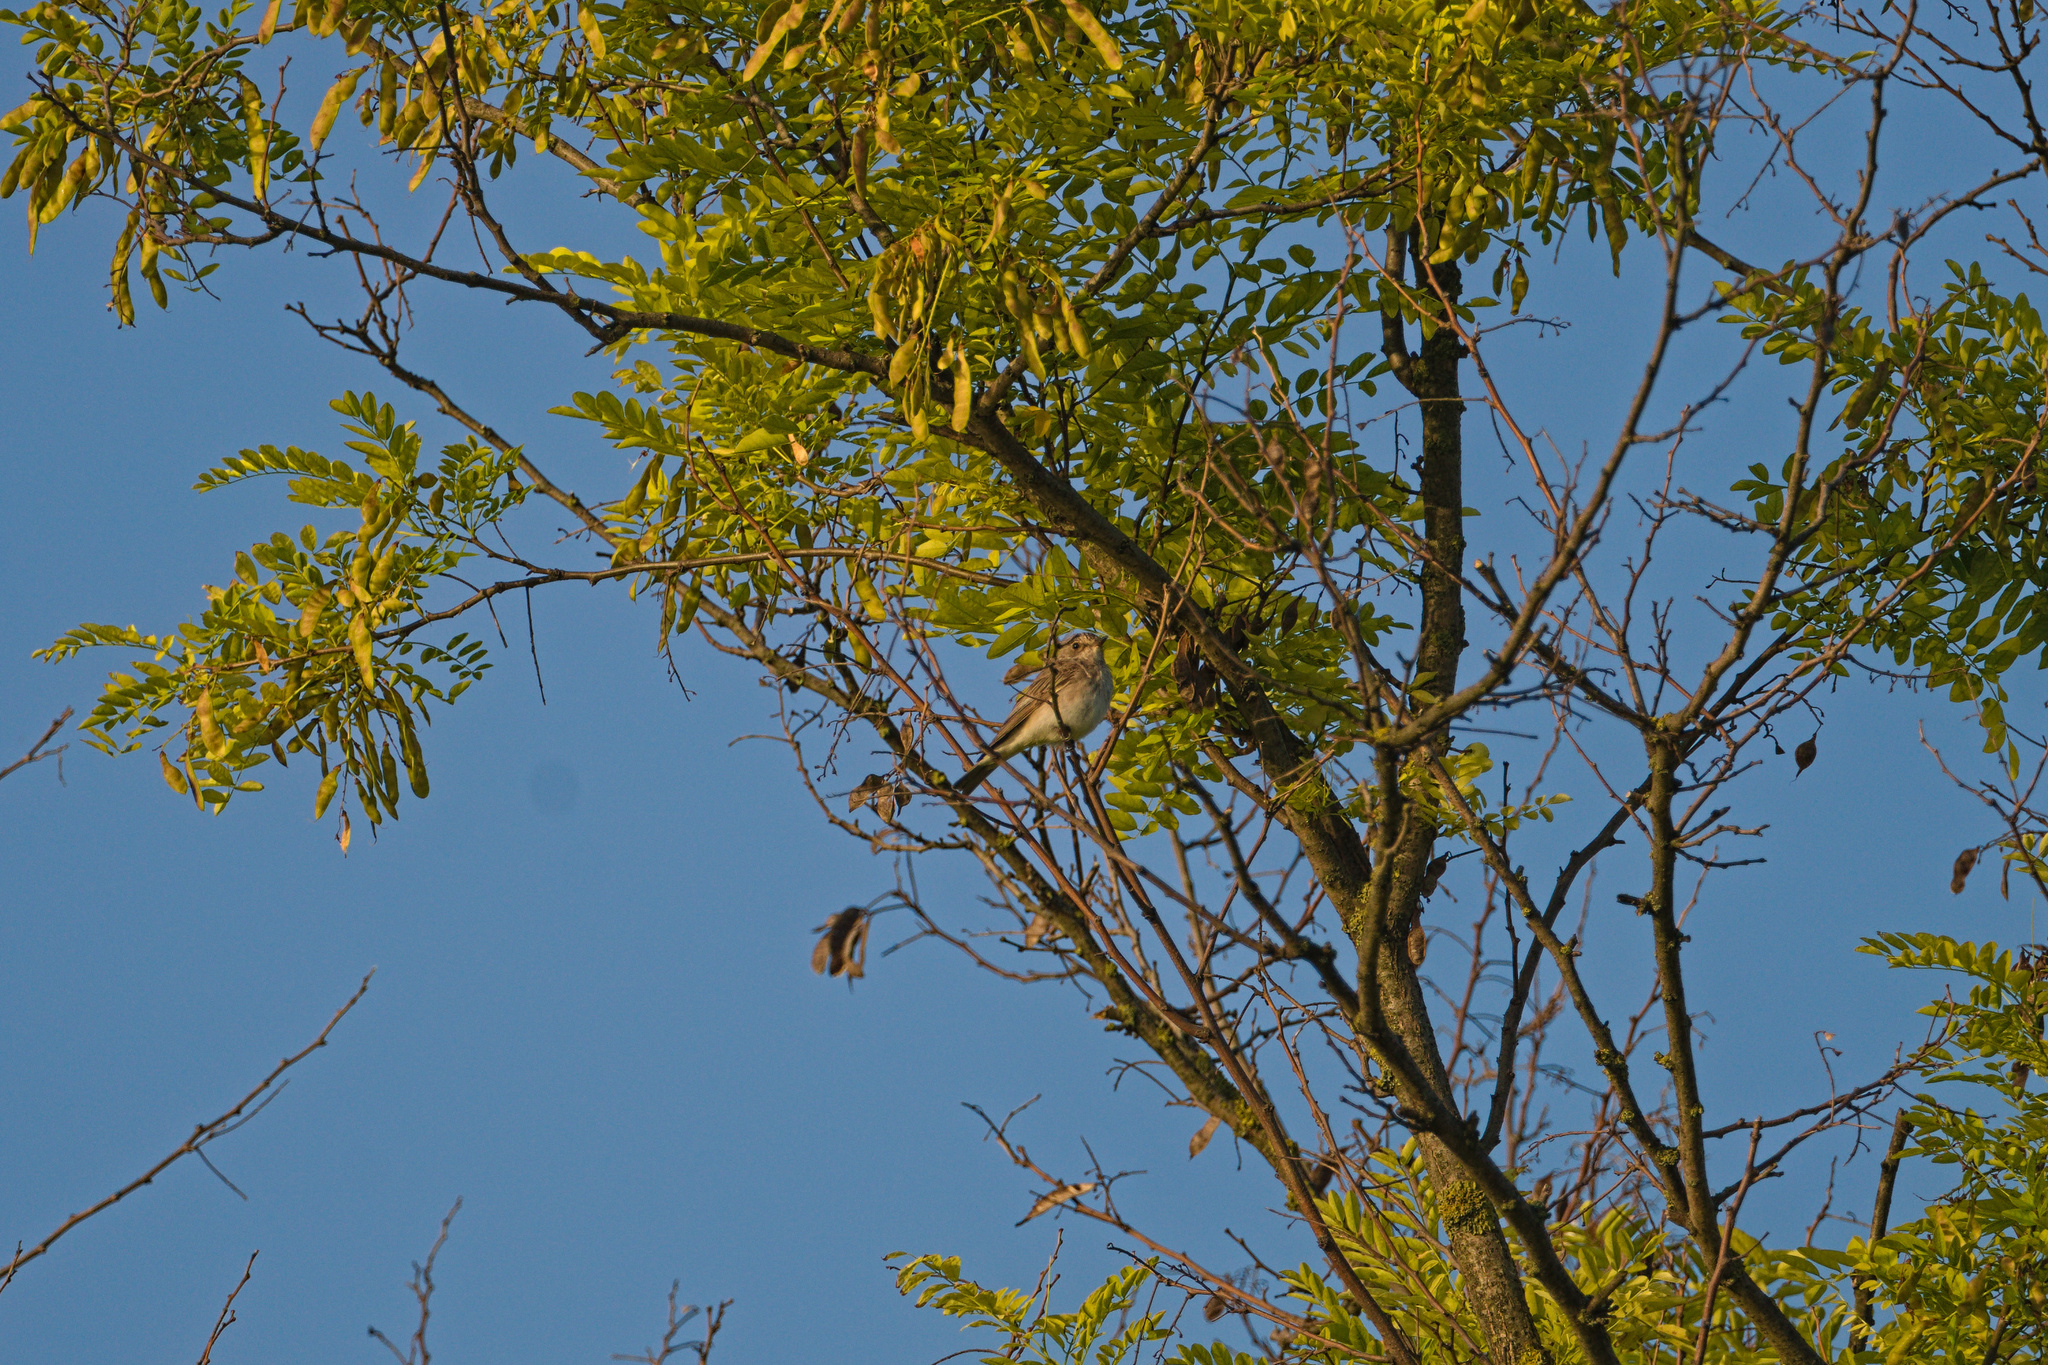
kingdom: Animalia
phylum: Chordata
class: Aves
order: Passeriformes
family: Muscicapidae
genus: Muscicapa
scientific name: Muscicapa striata
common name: Spotted flycatcher
